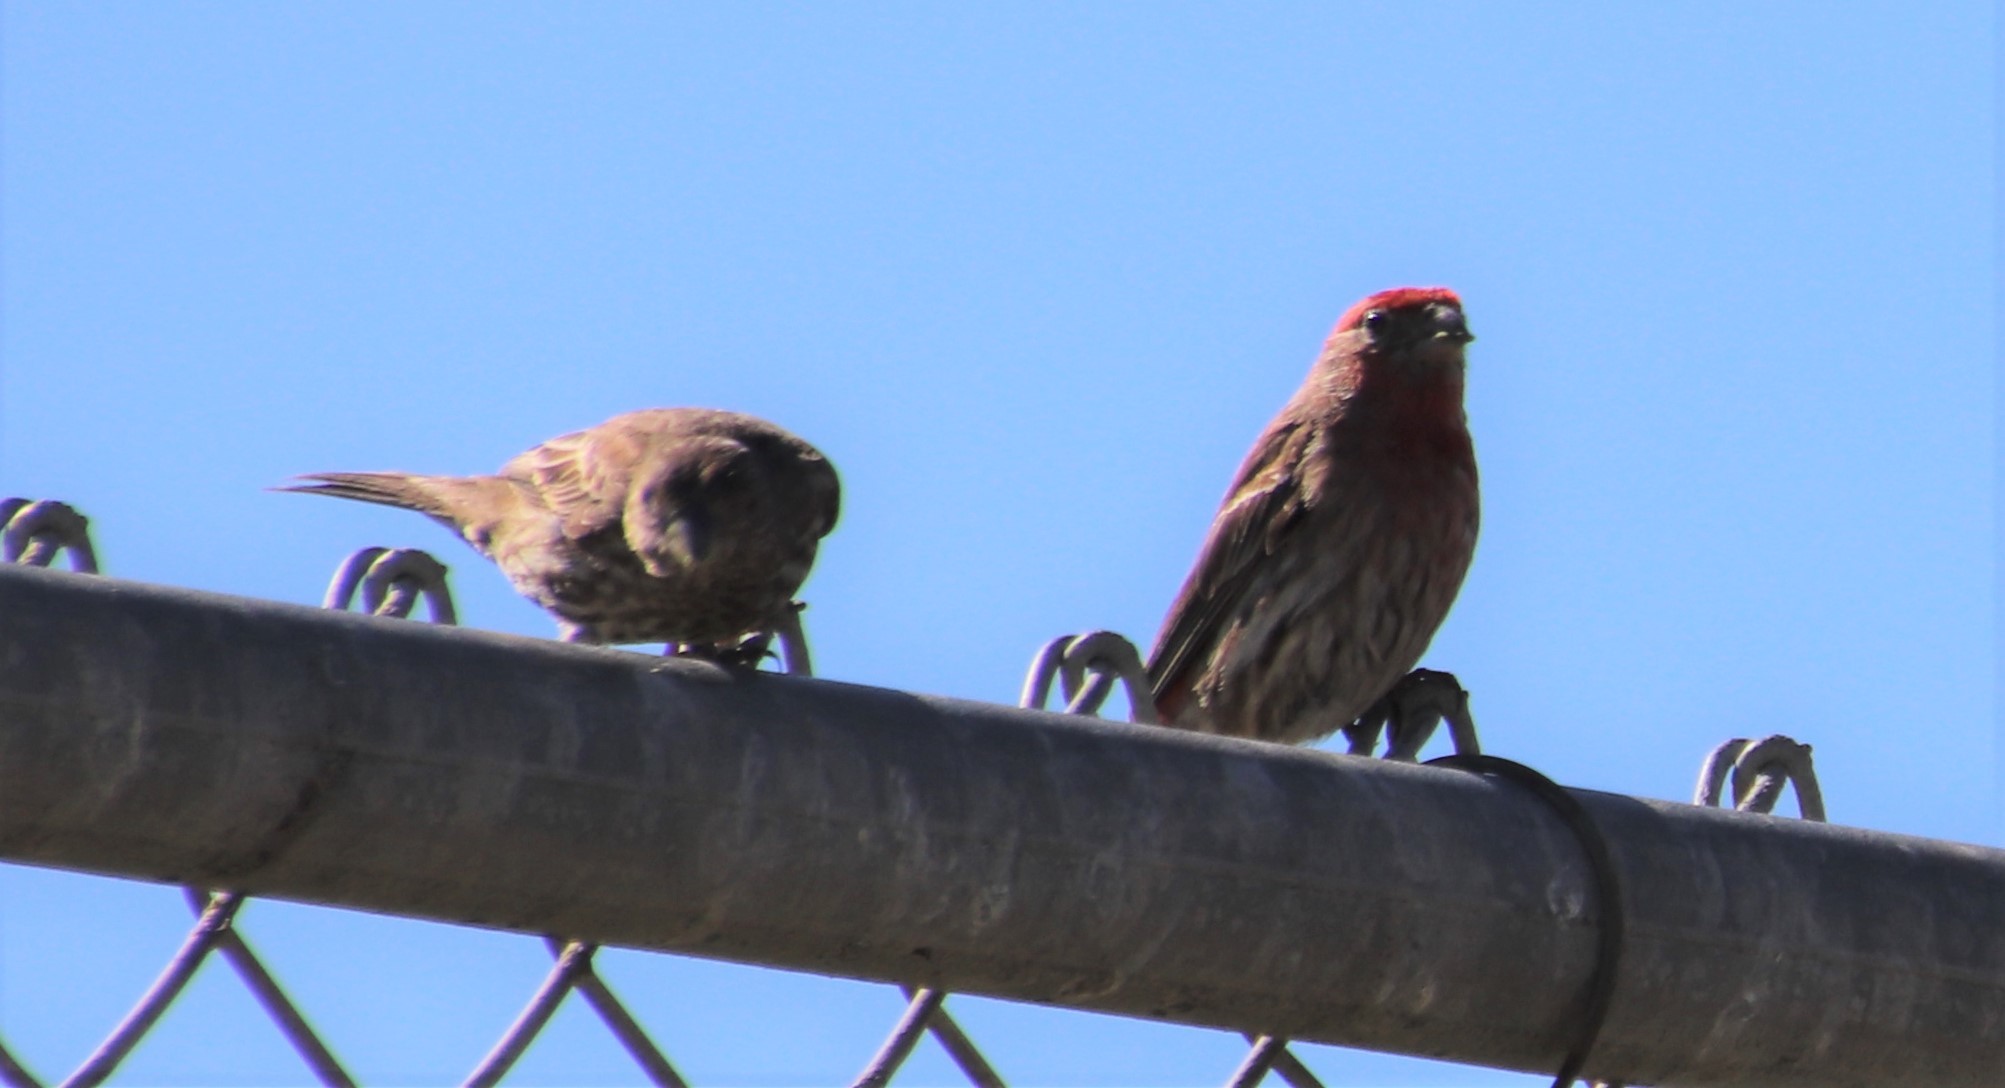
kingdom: Animalia
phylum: Chordata
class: Aves
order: Passeriformes
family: Fringillidae
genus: Haemorhous
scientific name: Haemorhous mexicanus
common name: House finch
